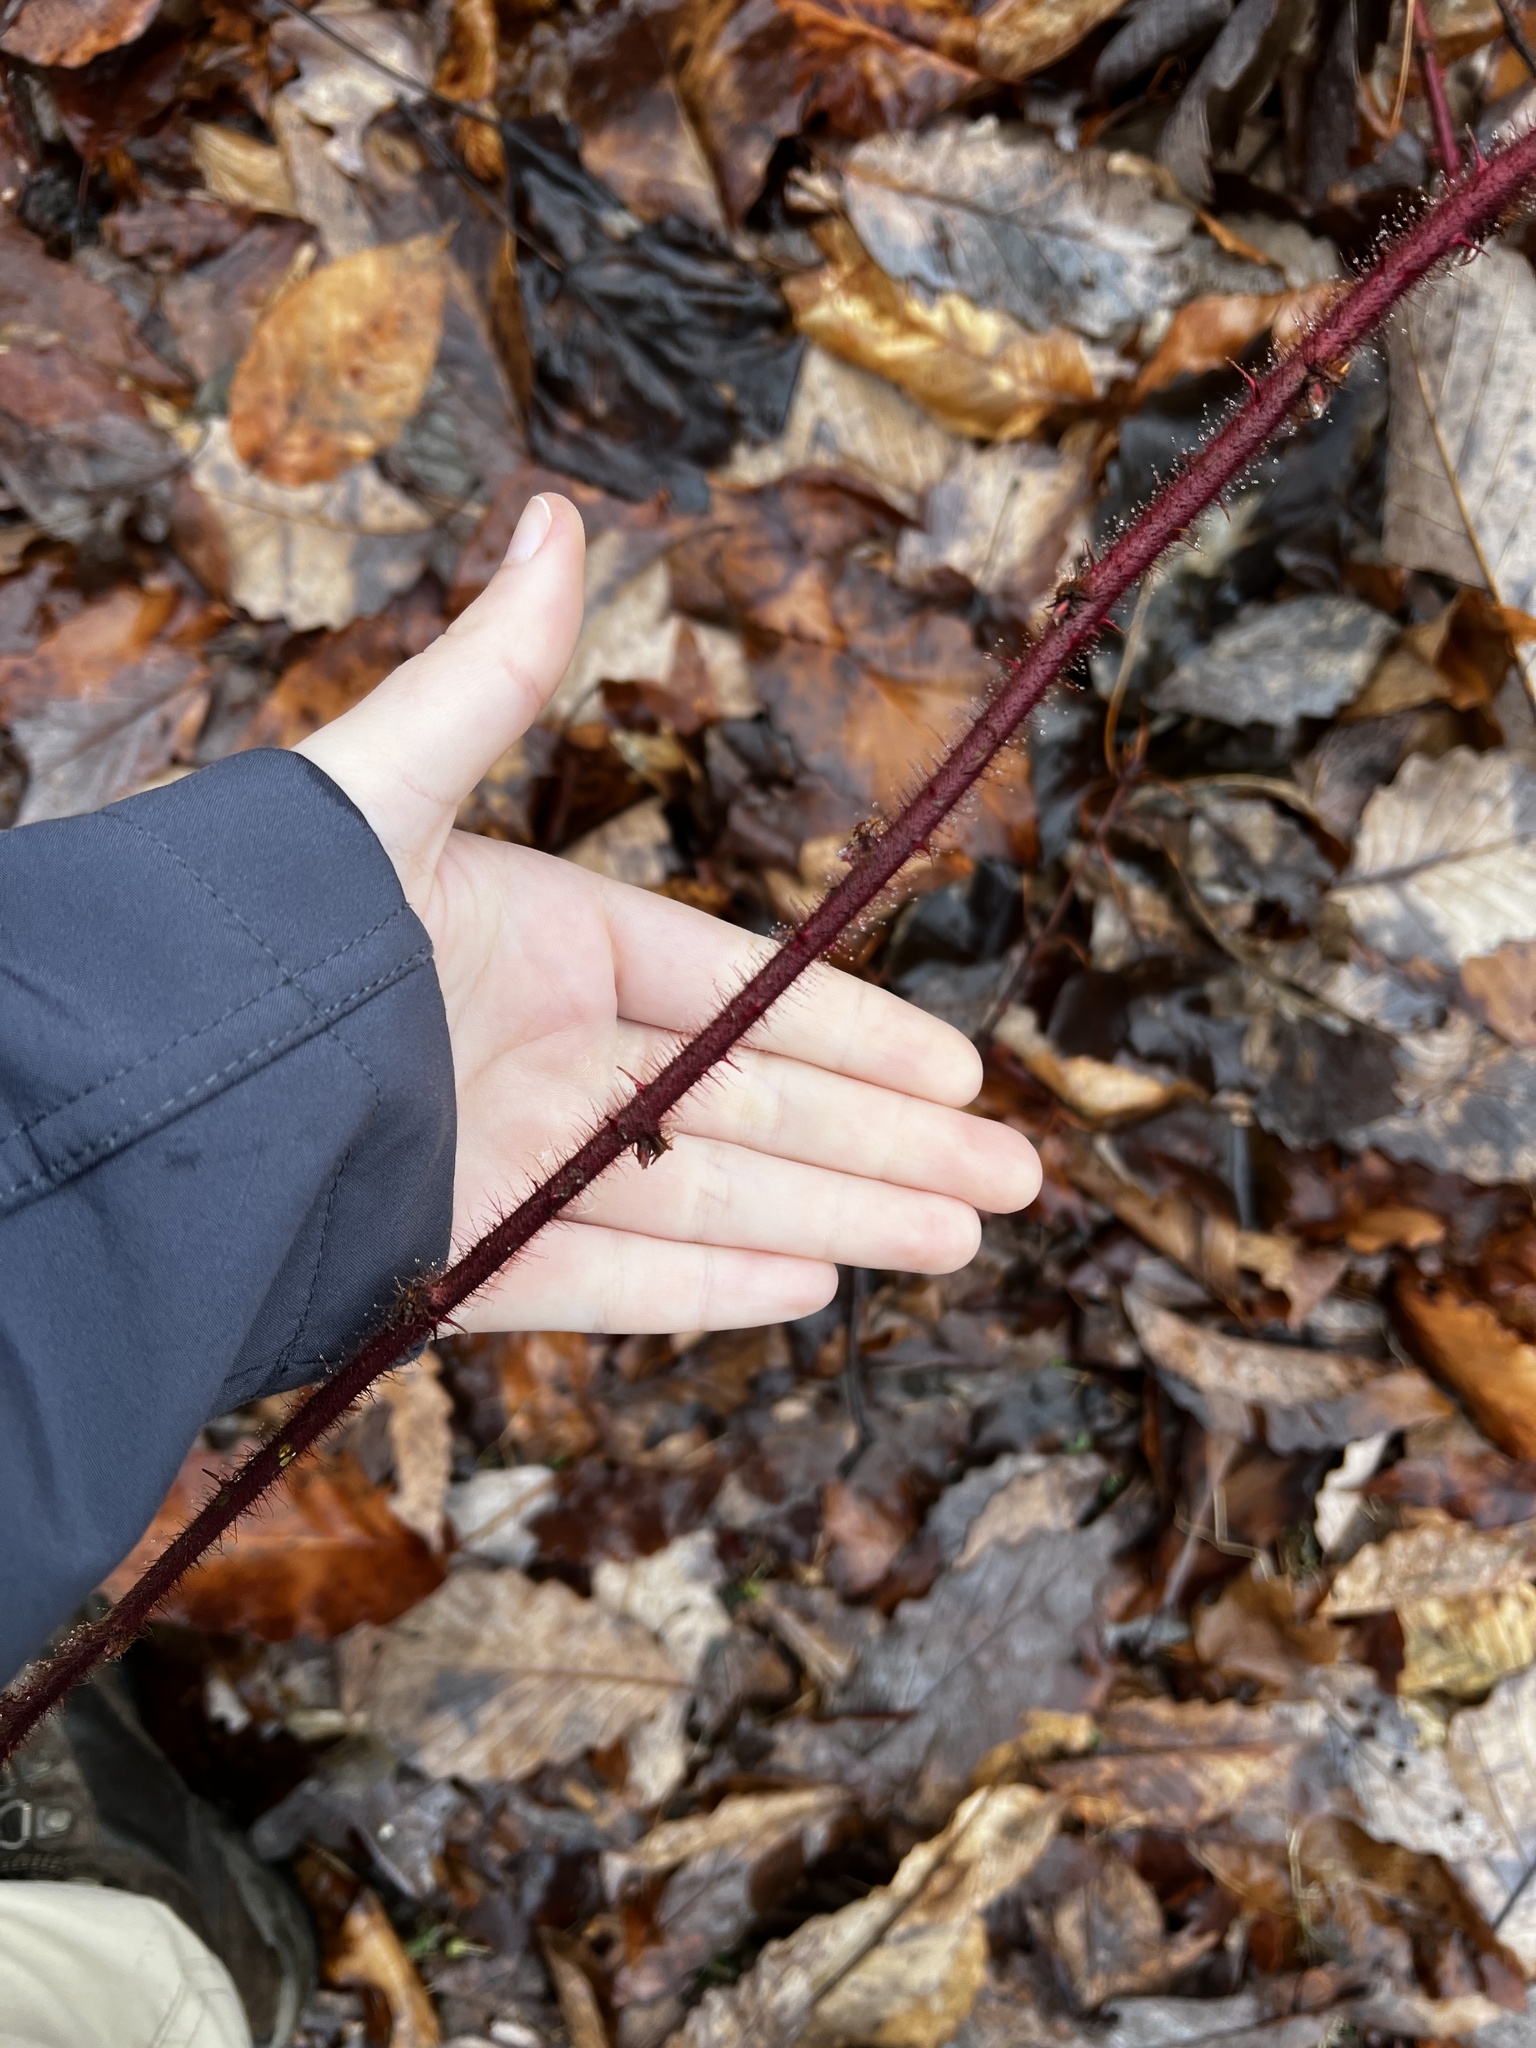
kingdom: Plantae
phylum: Tracheophyta
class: Magnoliopsida
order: Rosales
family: Rosaceae
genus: Rubus
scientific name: Rubus phoenicolasius
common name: Japanese wineberry
